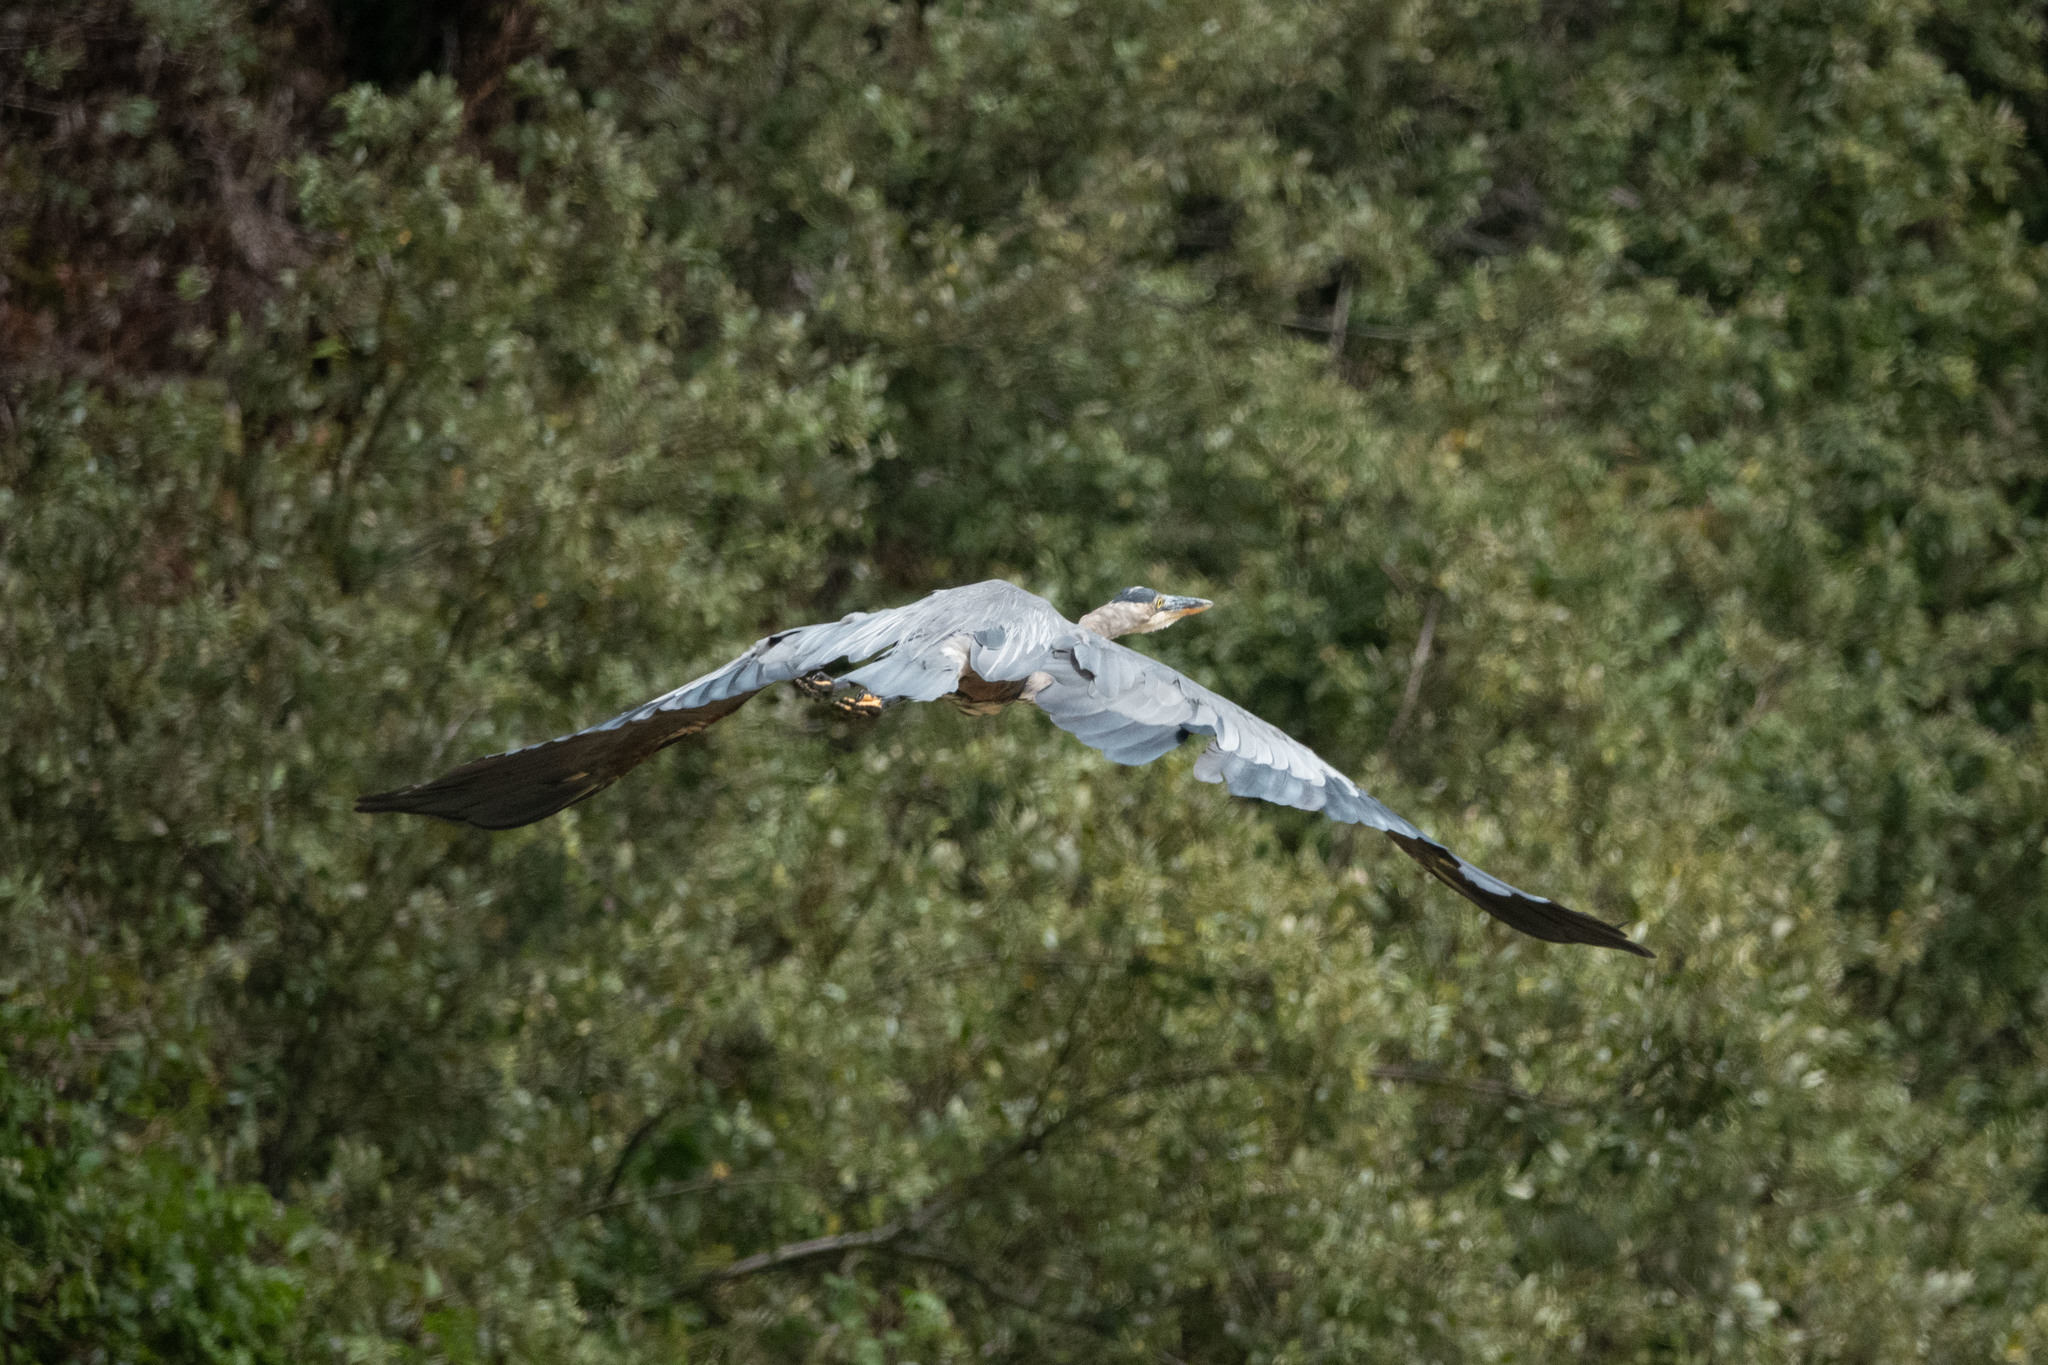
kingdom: Animalia
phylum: Chordata
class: Aves
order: Pelecaniformes
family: Ardeidae
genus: Ardea
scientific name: Ardea herodias
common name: Great blue heron
